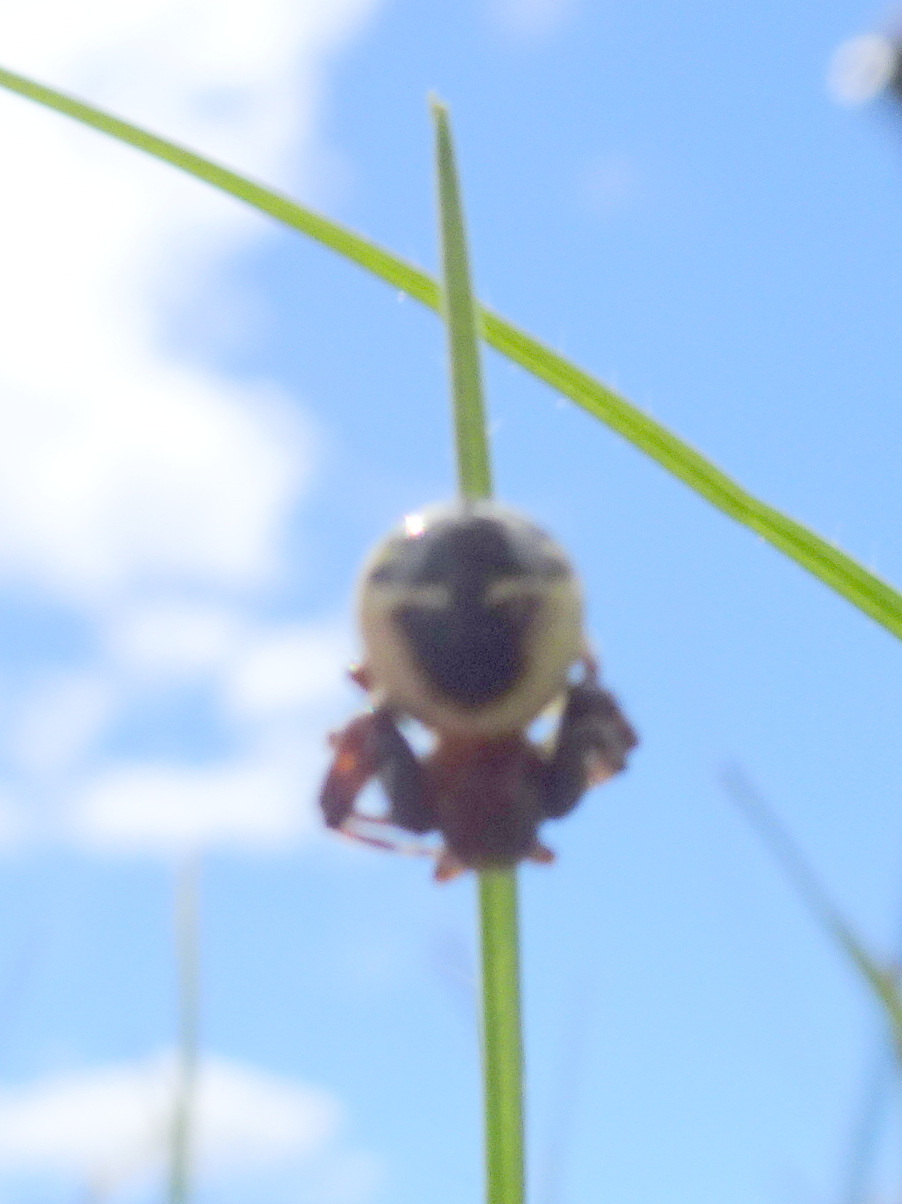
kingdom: Animalia
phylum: Arthropoda
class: Arachnida
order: Araneae
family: Thomisidae
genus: Synema
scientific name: Synema globosum
